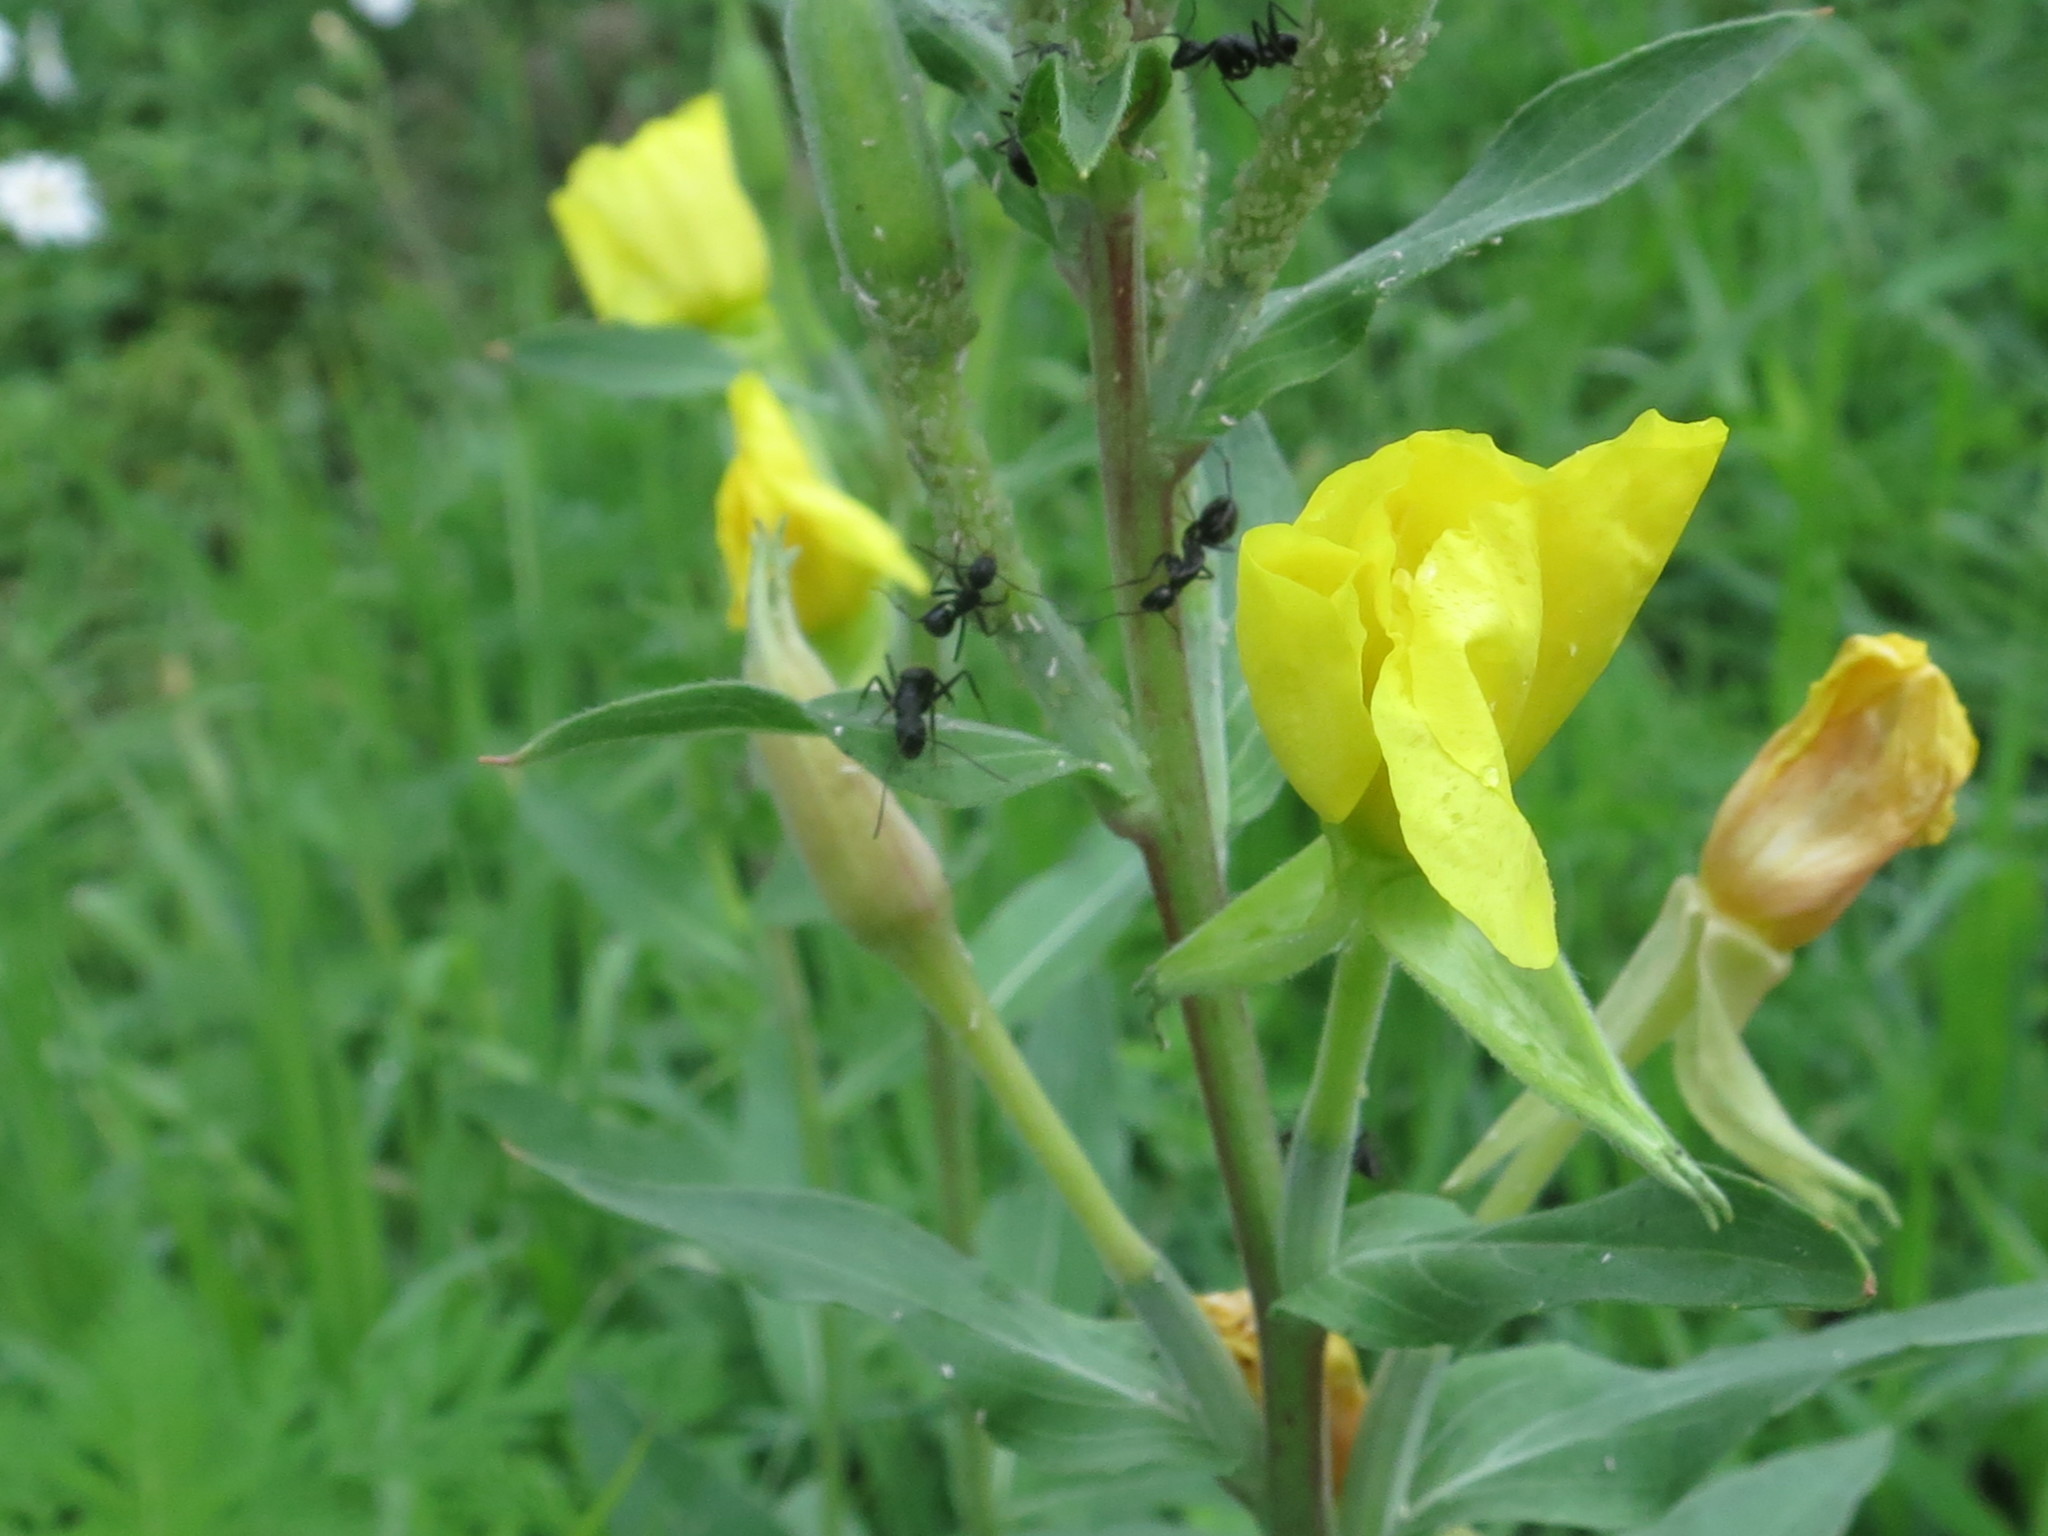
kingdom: Plantae
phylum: Tracheophyta
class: Magnoliopsida
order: Myrtales
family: Onagraceae
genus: Oenothera
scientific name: Oenothera villosa
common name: Hairy evening-primrose
